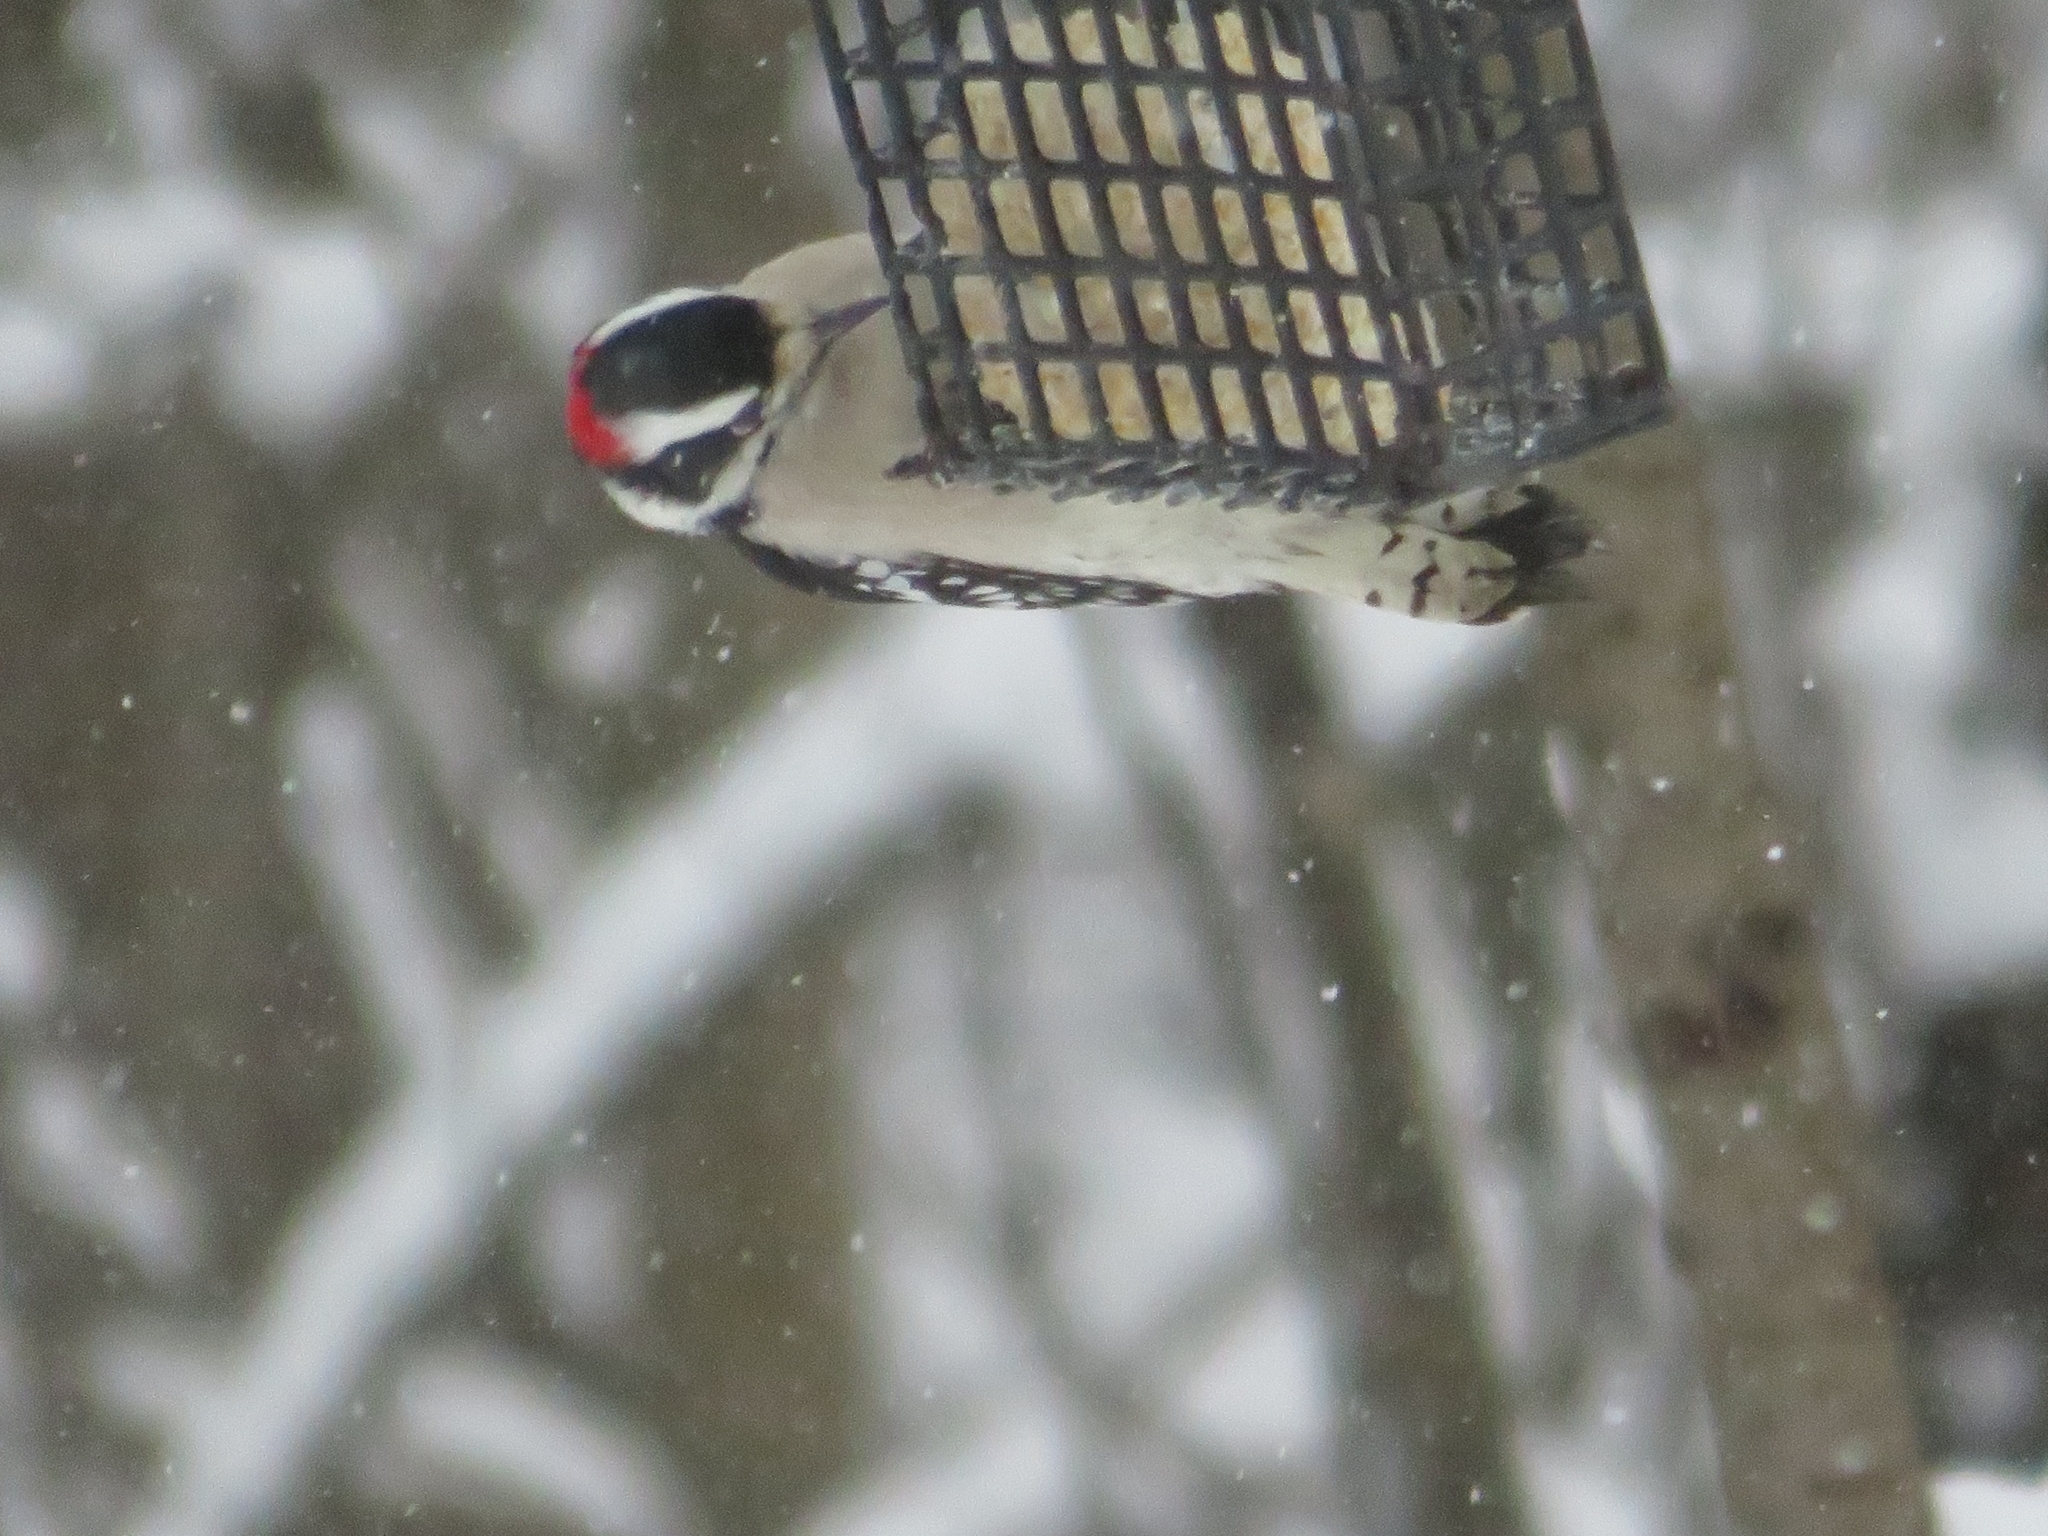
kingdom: Animalia
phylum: Chordata
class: Aves
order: Piciformes
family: Picidae
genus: Dryobates
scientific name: Dryobates pubescens
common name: Downy woodpecker
